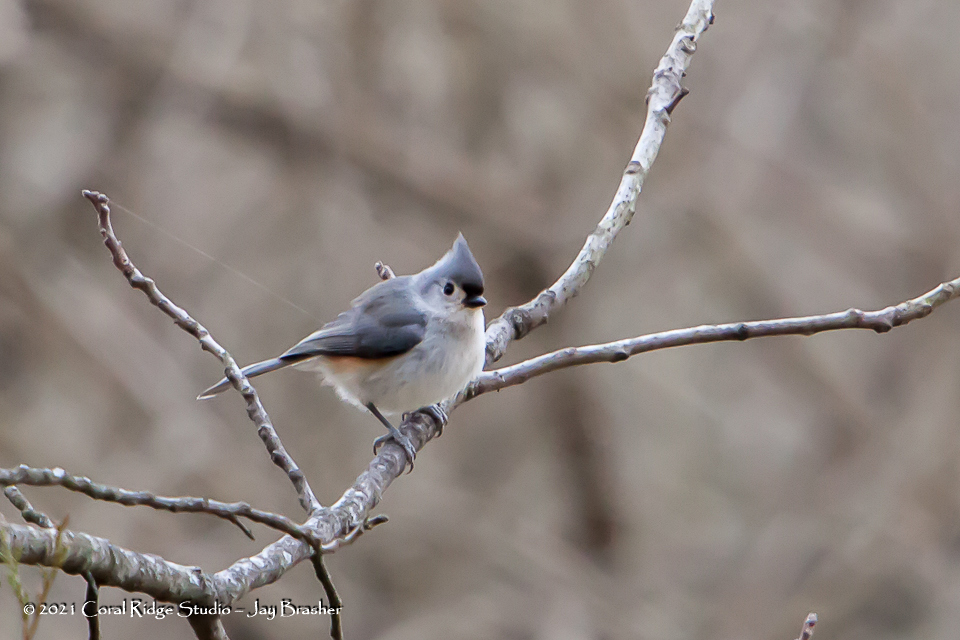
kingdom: Animalia
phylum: Chordata
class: Aves
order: Passeriformes
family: Paridae
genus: Baeolophus
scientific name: Baeolophus bicolor
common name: Tufted titmouse
